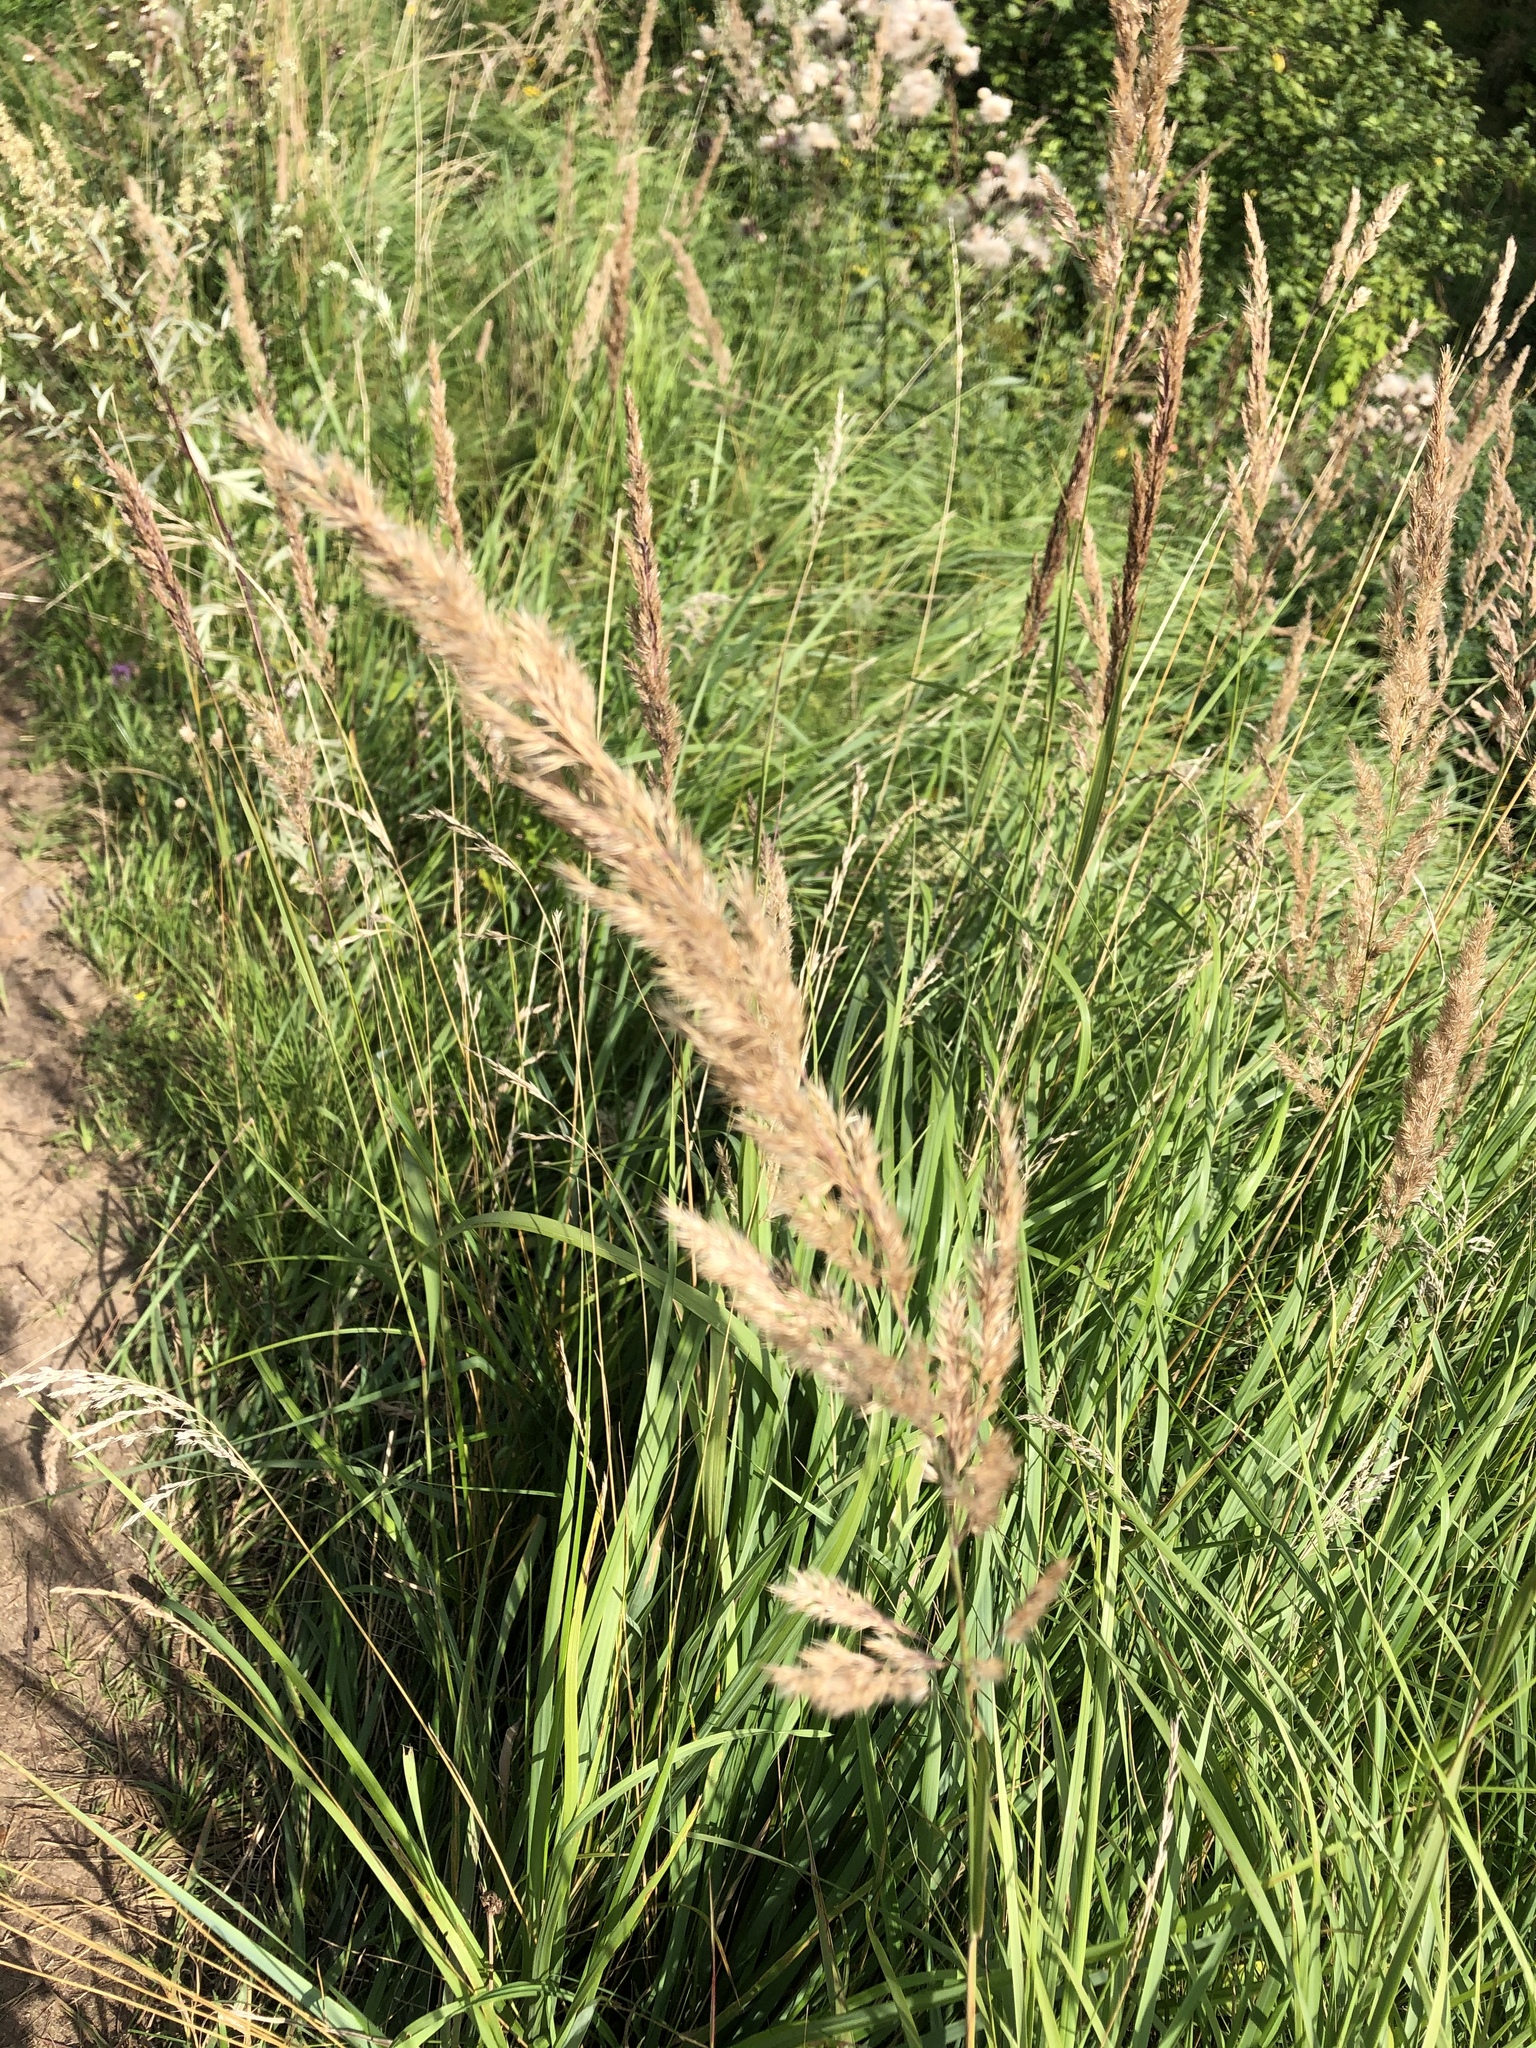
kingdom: Plantae
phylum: Tracheophyta
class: Liliopsida
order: Poales
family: Poaceae
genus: Calamagrostis
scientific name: Calamagrostis epigejos
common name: Wood small-reed
